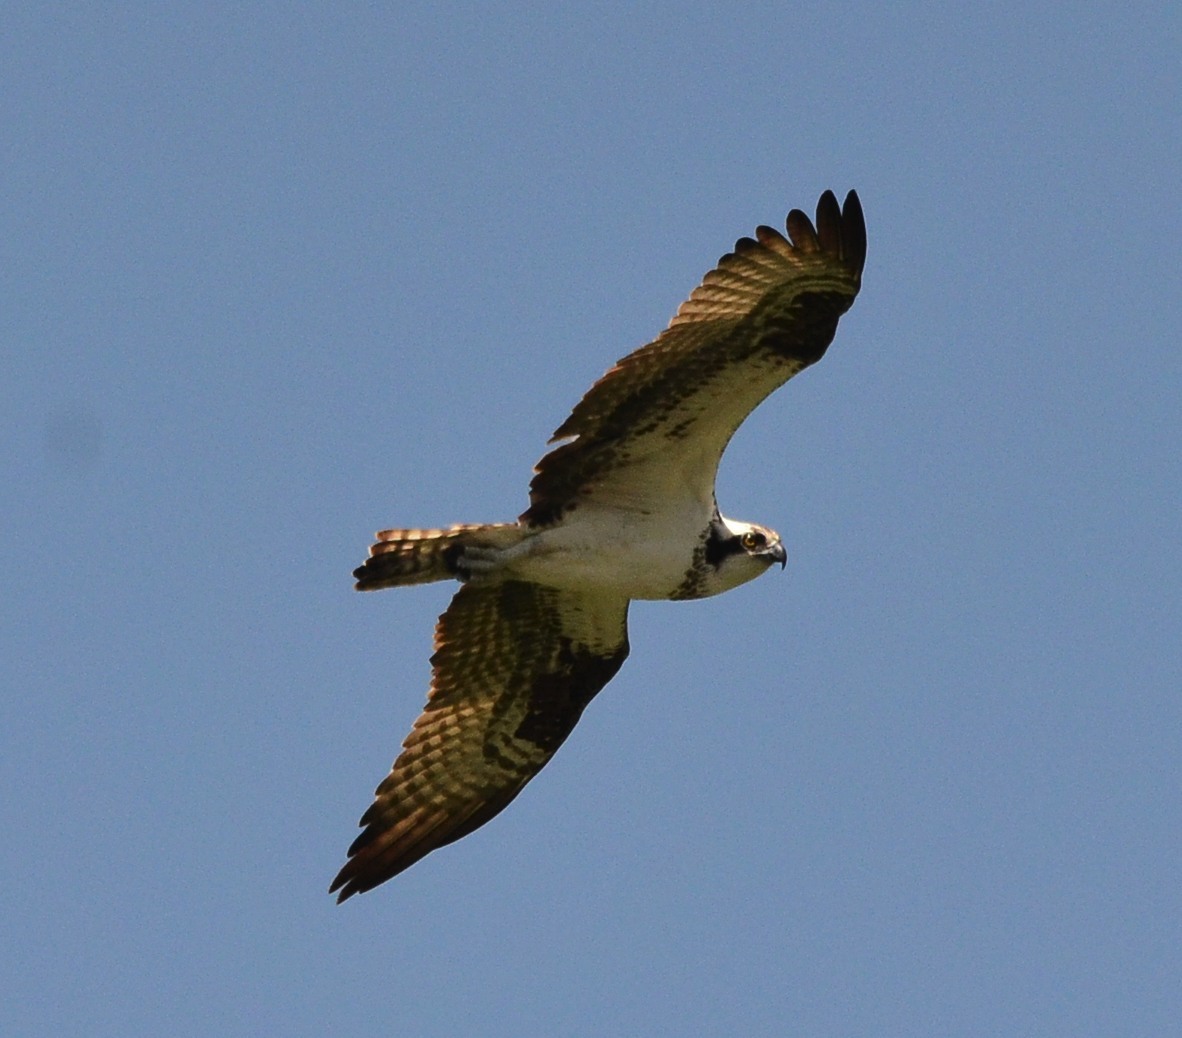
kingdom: Animalia
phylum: Chordata
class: Aves
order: Accipitriformes
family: Pandionidae
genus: Pandion
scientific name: Pandion haliaetus
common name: Osprey
